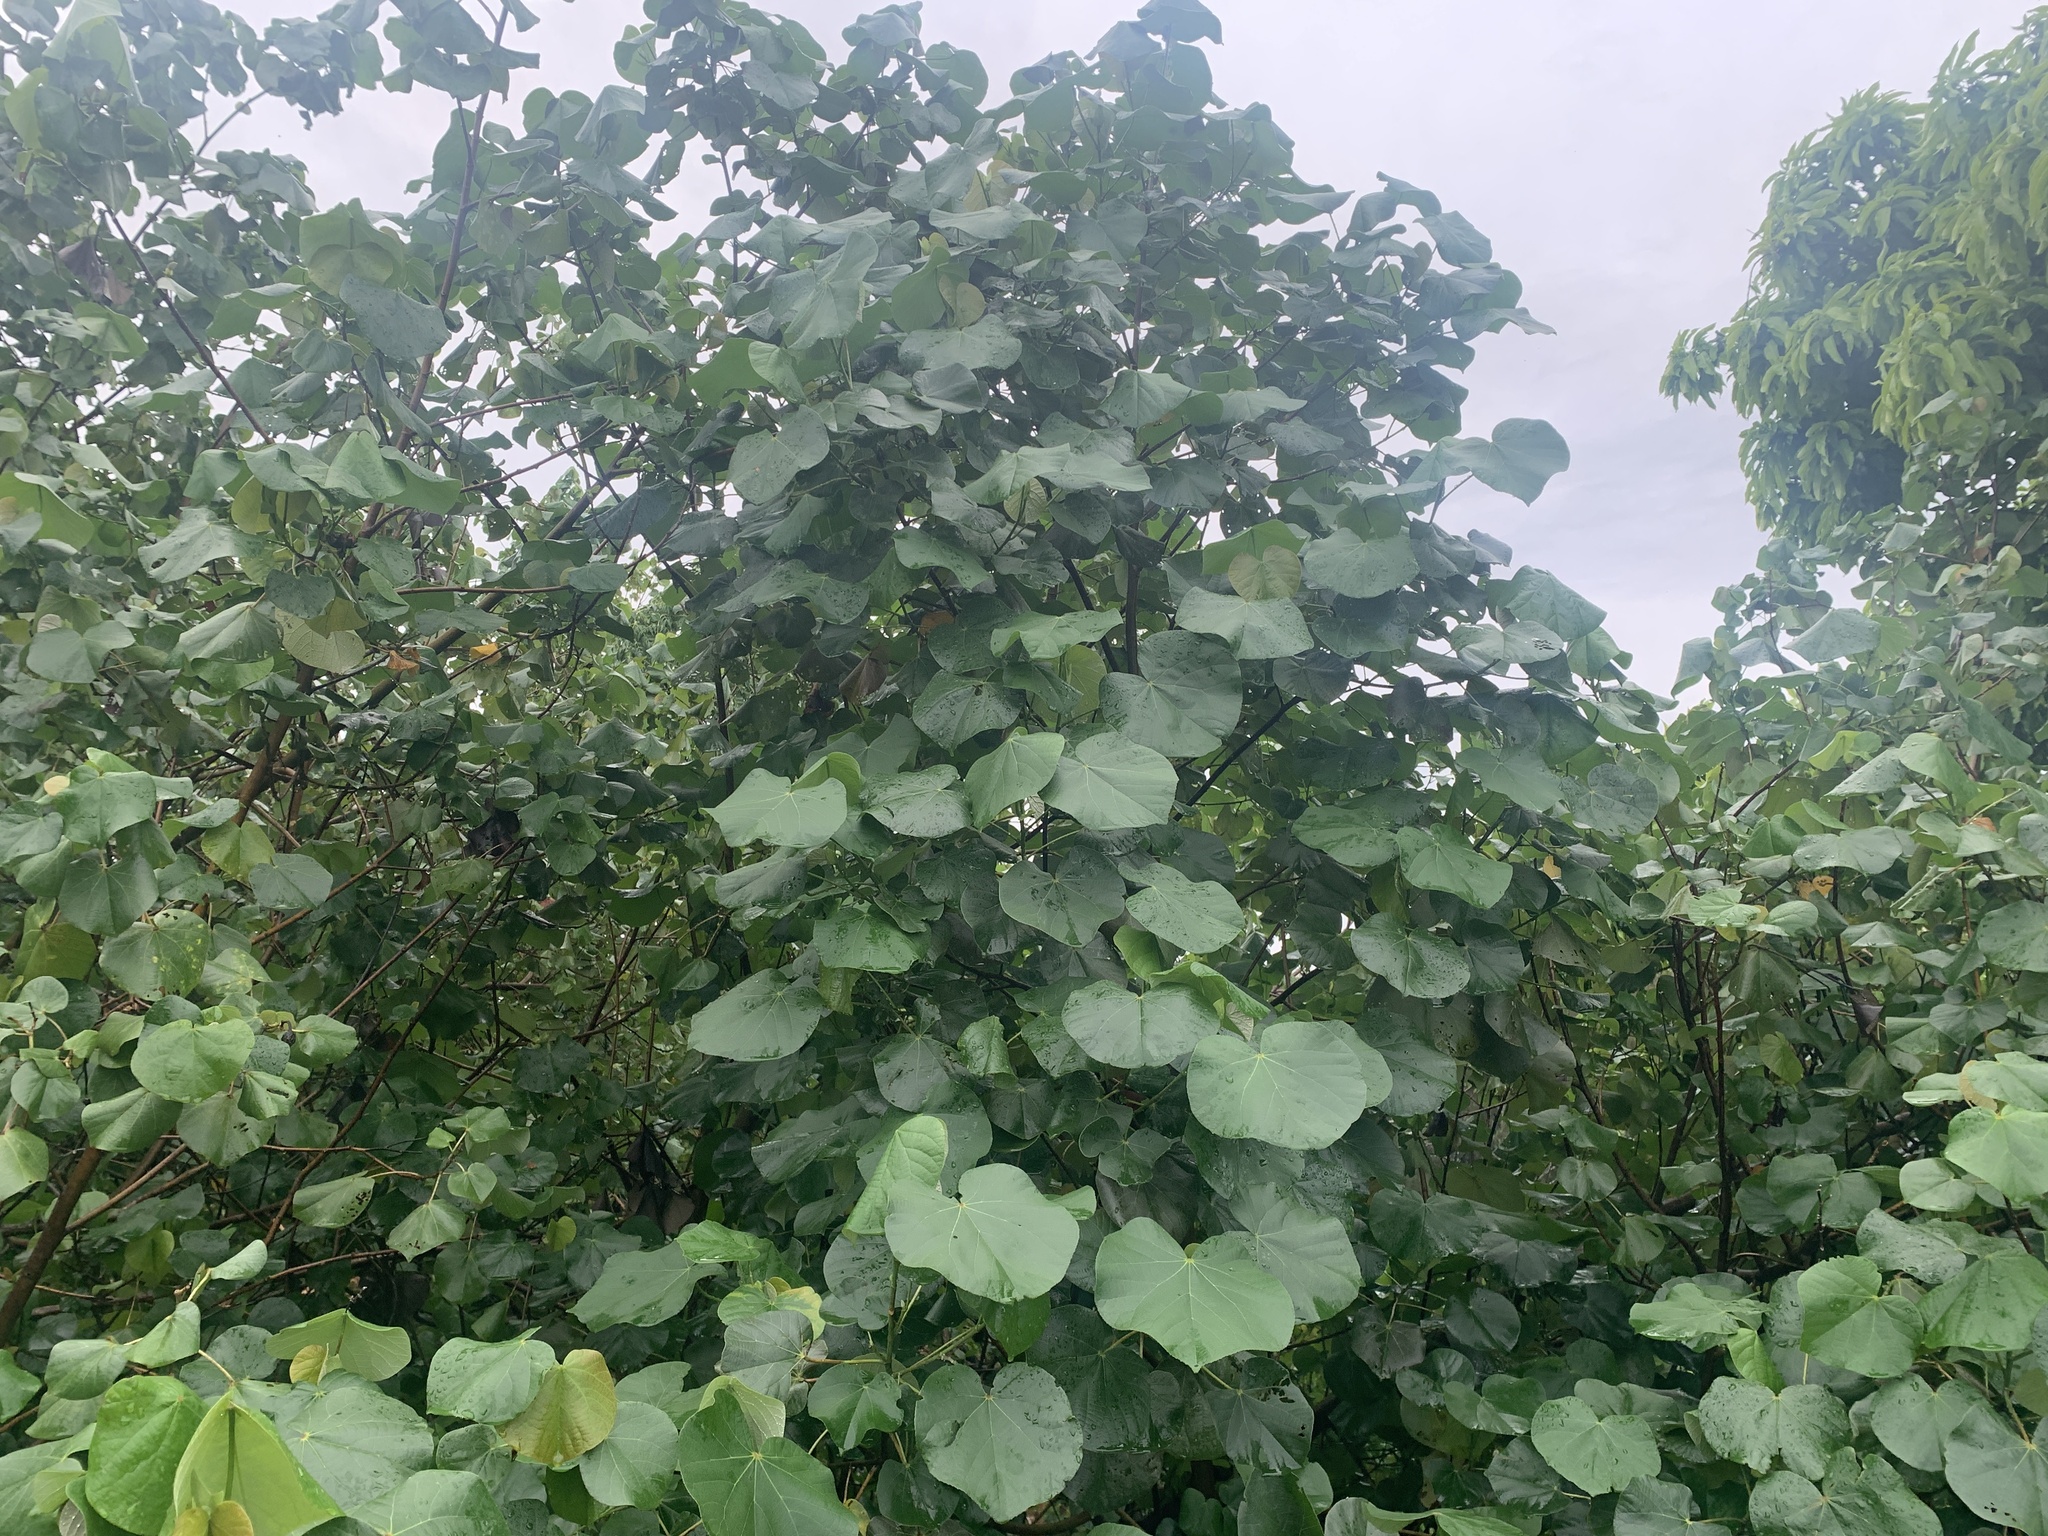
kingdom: Plantae
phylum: Tracheophyta
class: Magnoliopsida
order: Malvales
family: Malvaceae
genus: Talipariti
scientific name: Talipariti tiliaceum
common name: Sea hibiscus
